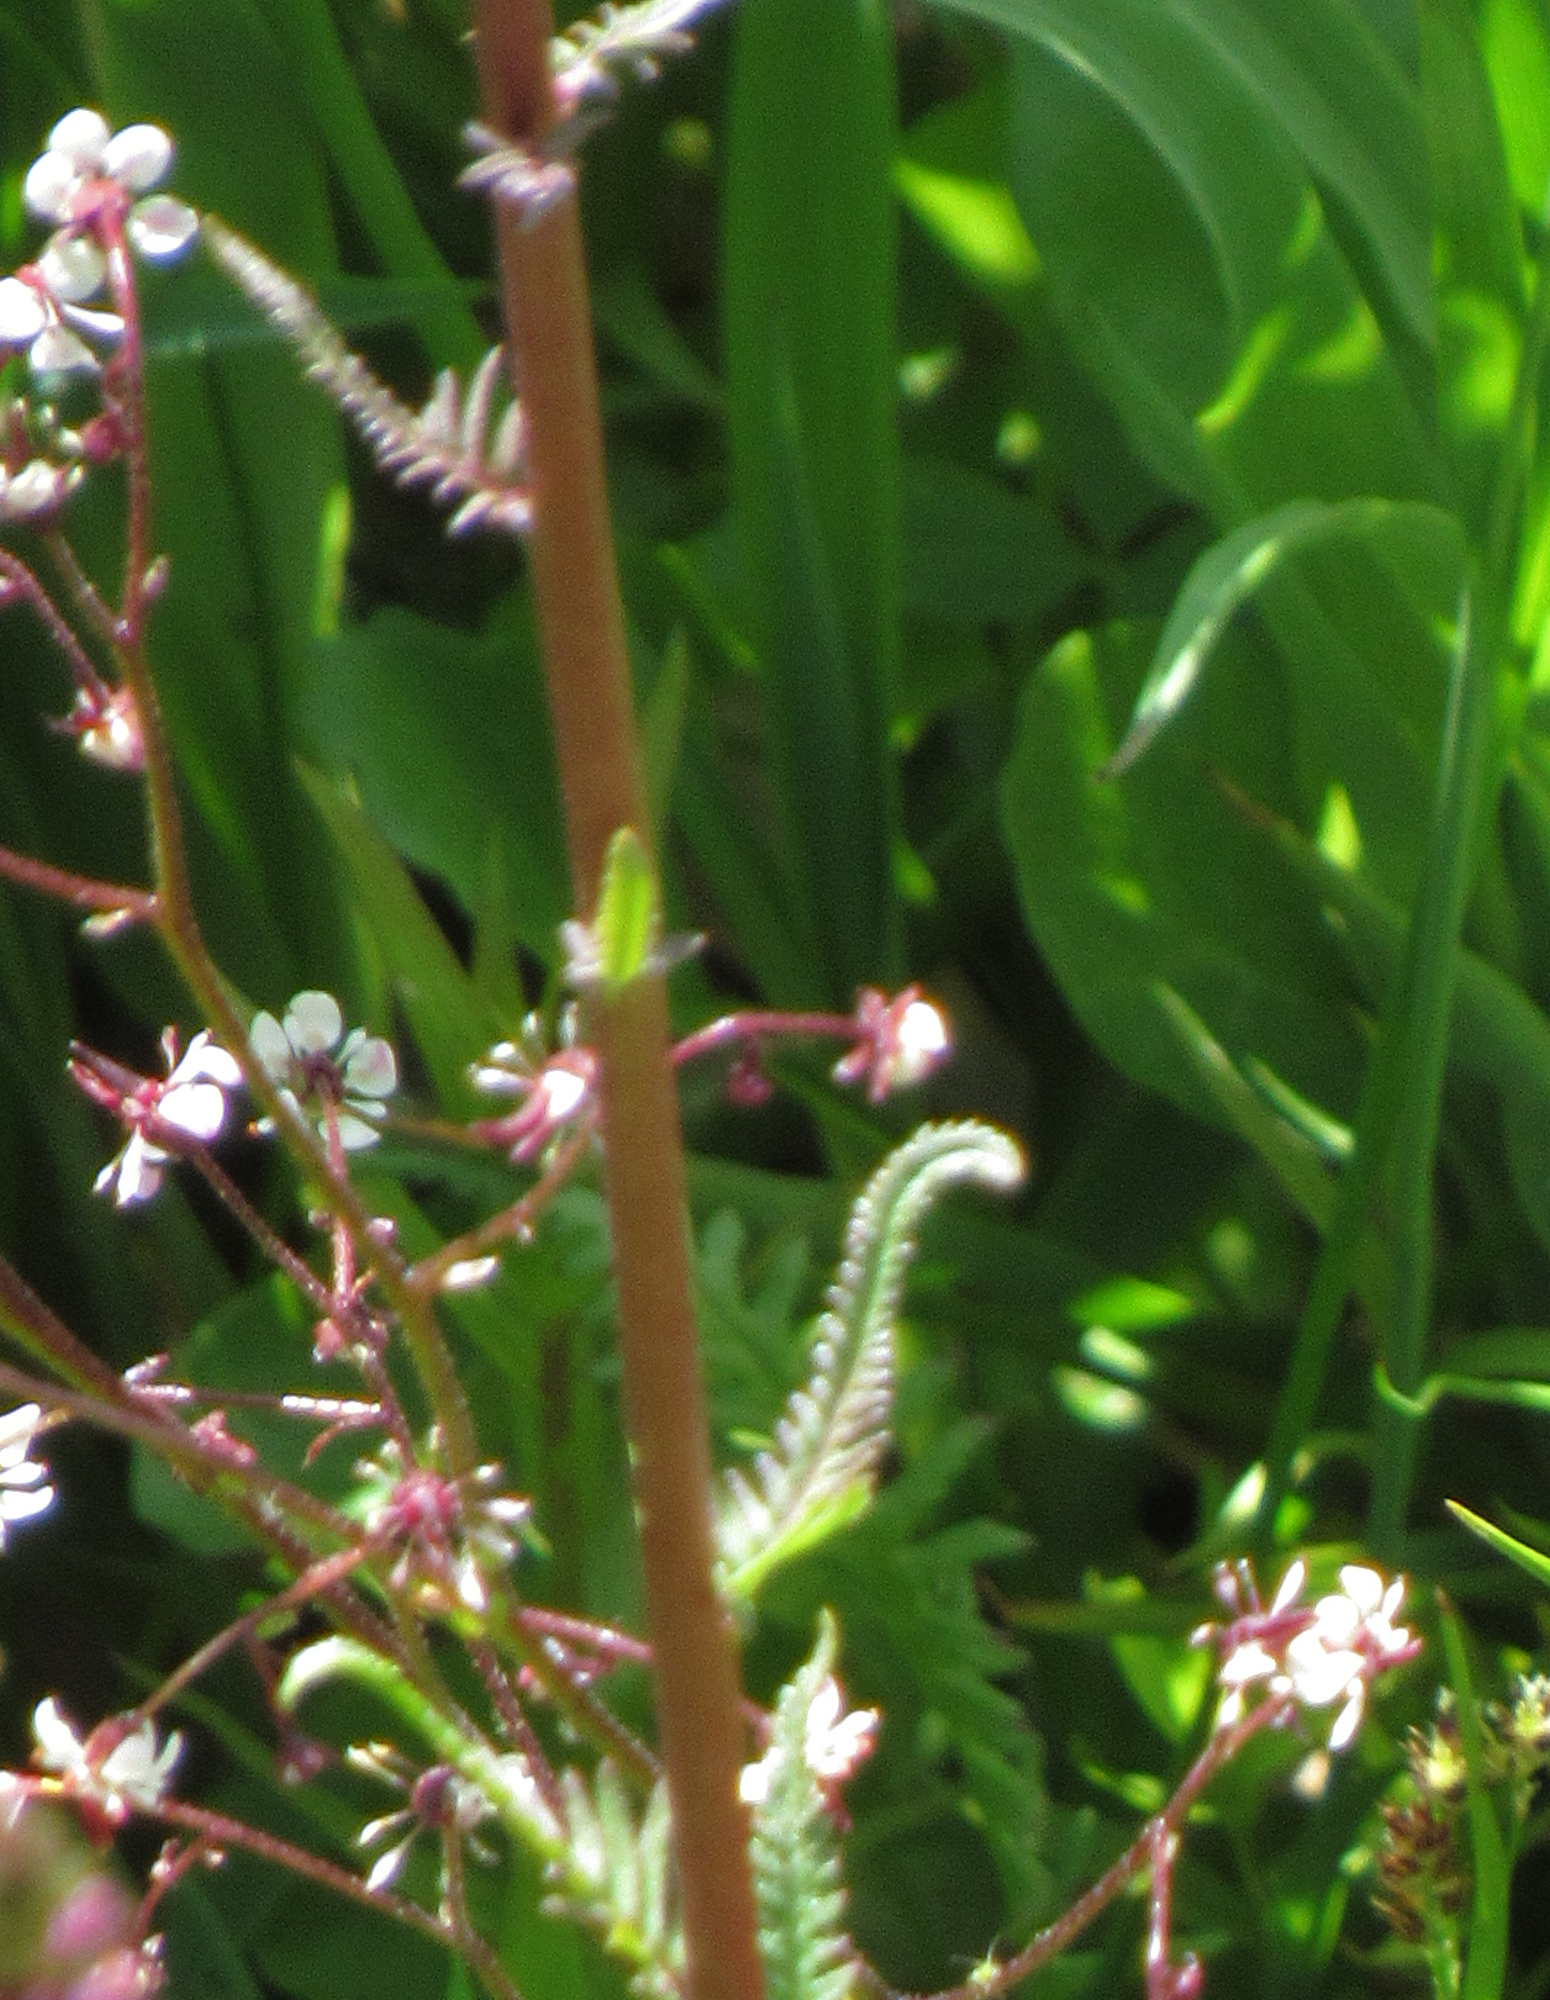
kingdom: Plantae
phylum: Tracheophyta
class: Magnoliopsida
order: Saxifragales
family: Saxifragaceae
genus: Micranthes
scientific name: Micranthes odontoloma
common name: Brook saxifrage
